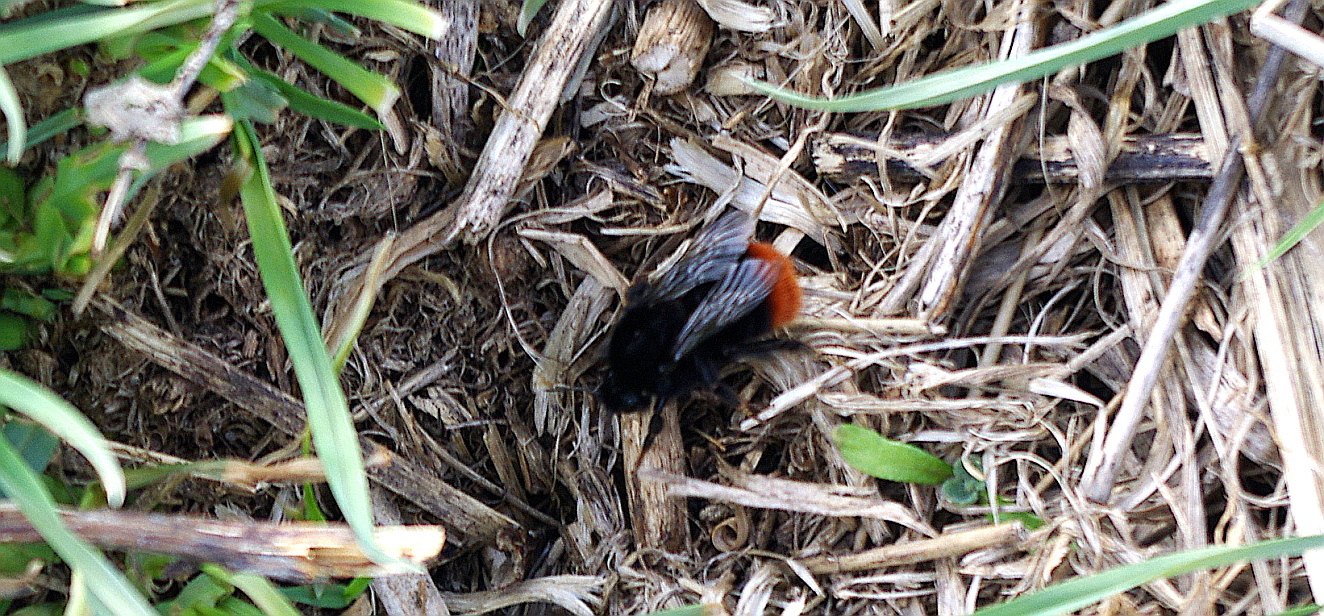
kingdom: Animalia
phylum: Arthropoda
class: Insecta
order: Hymenoptera
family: Apidae
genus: Bombus
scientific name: Bombus lapidarius
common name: Large red-tailed humble-bee
